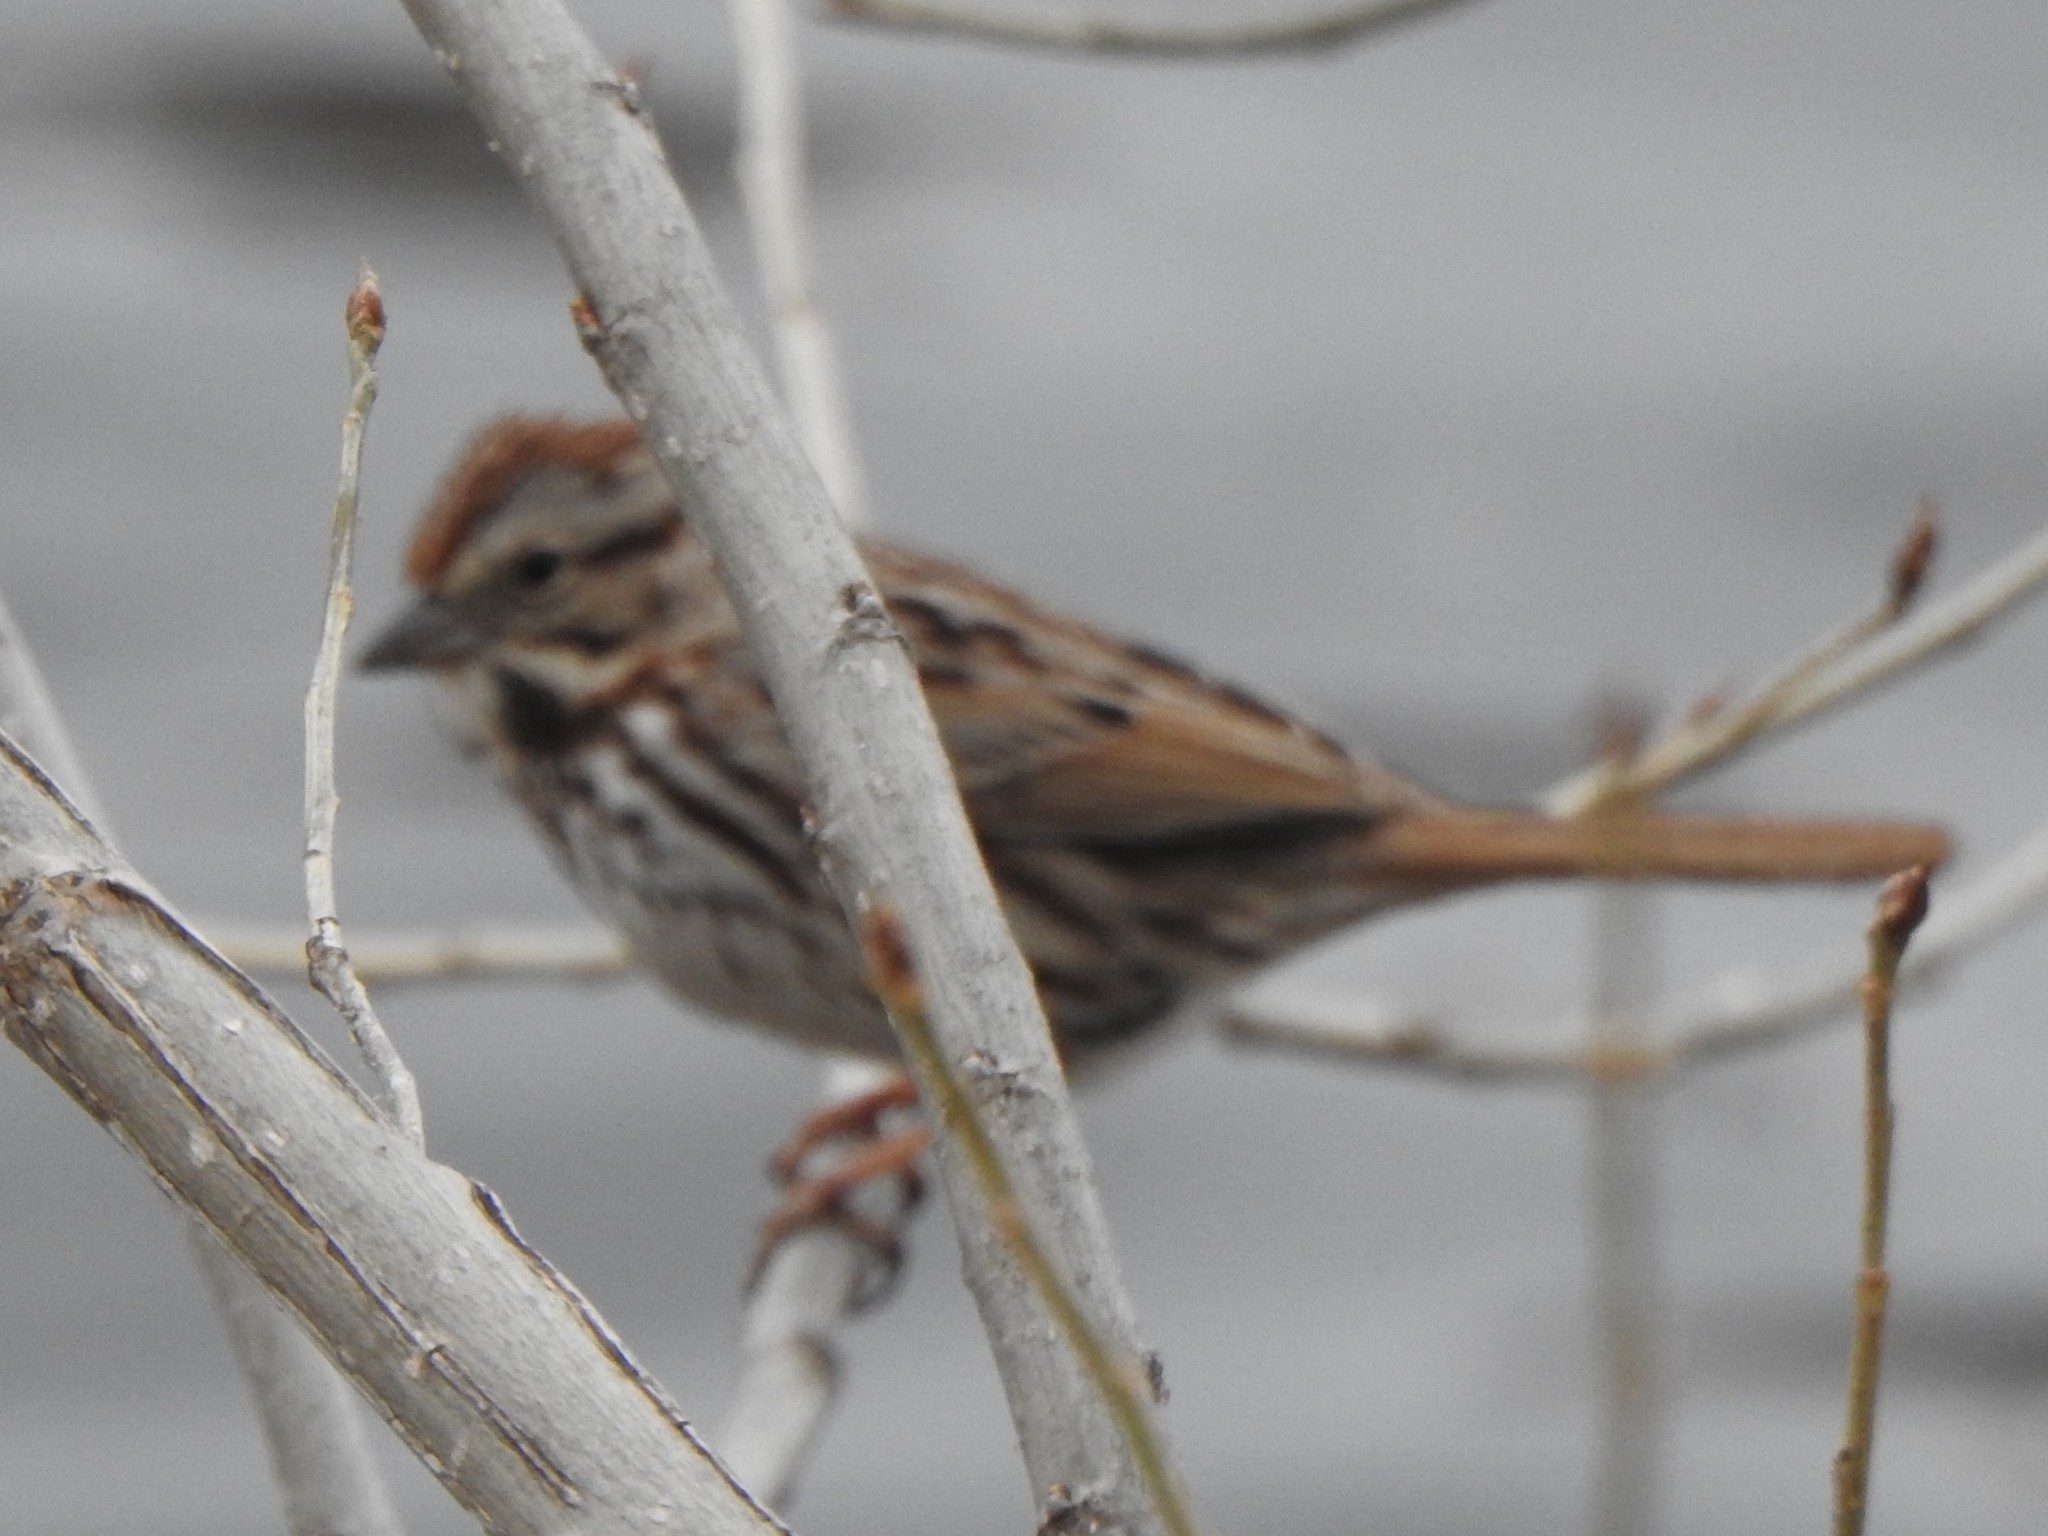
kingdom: Animalia
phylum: Chordata
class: Aves
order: Passeriformes
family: Passerellidae
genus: Melospiza
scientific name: Melospiza melodia
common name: Song sparrow
